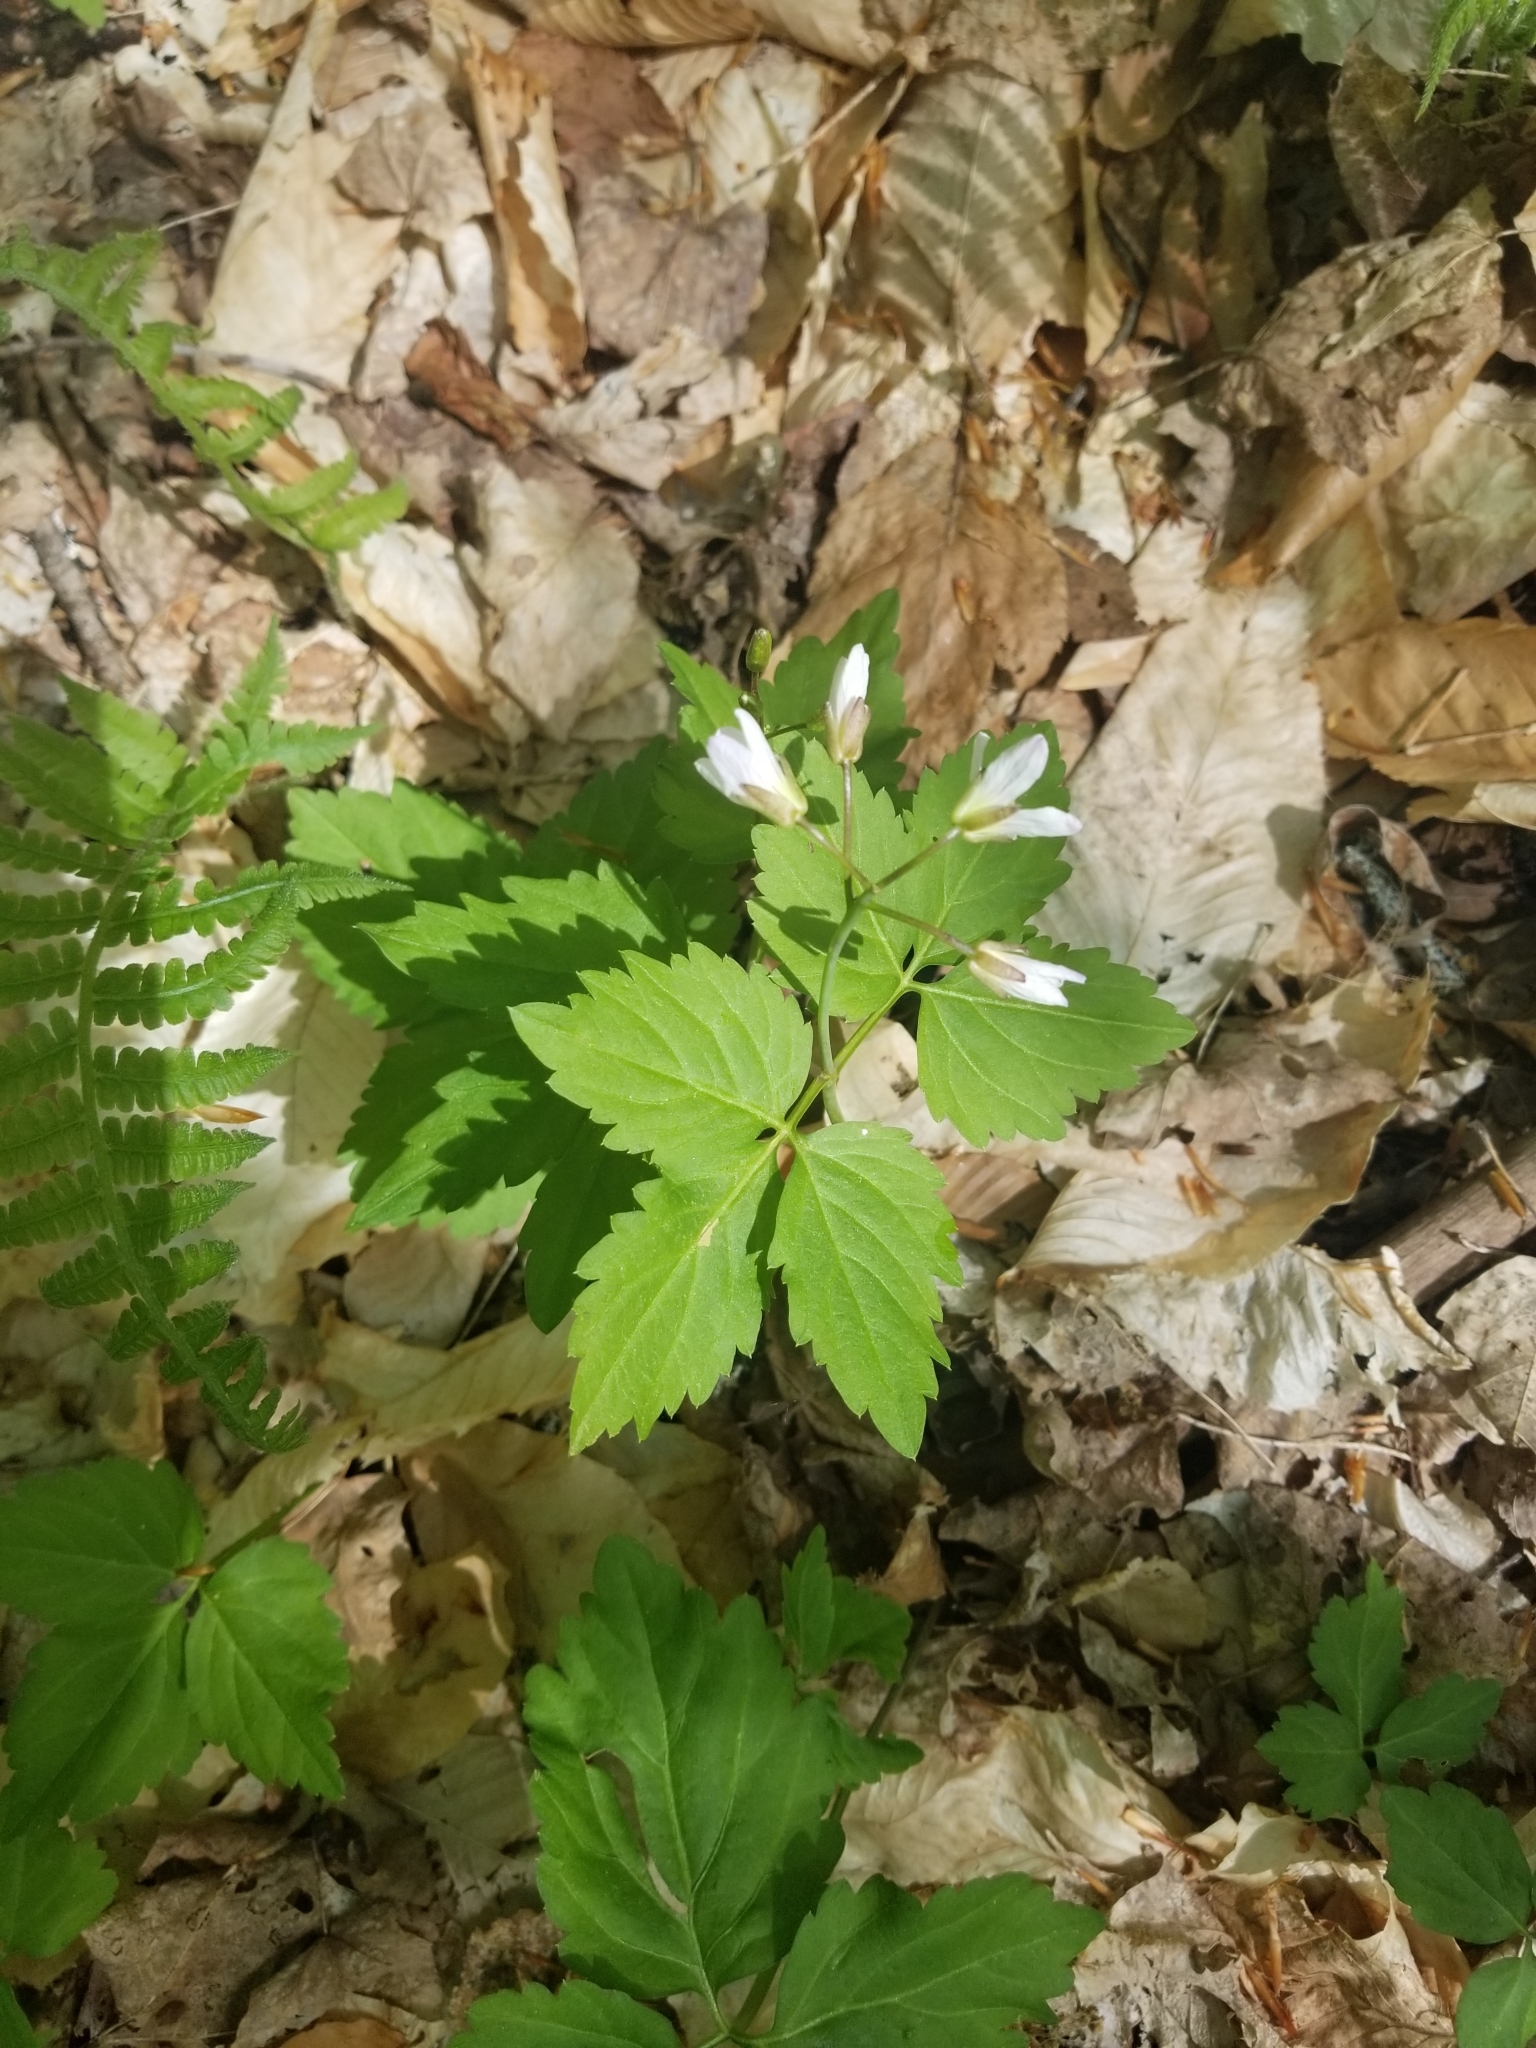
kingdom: Plantae
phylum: Tracheophyta
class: Magnoliopsida
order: Brassicales
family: Brassicaceae
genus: Cardamine
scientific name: Cardamine diphylla
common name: Broad-leaved toothwort
